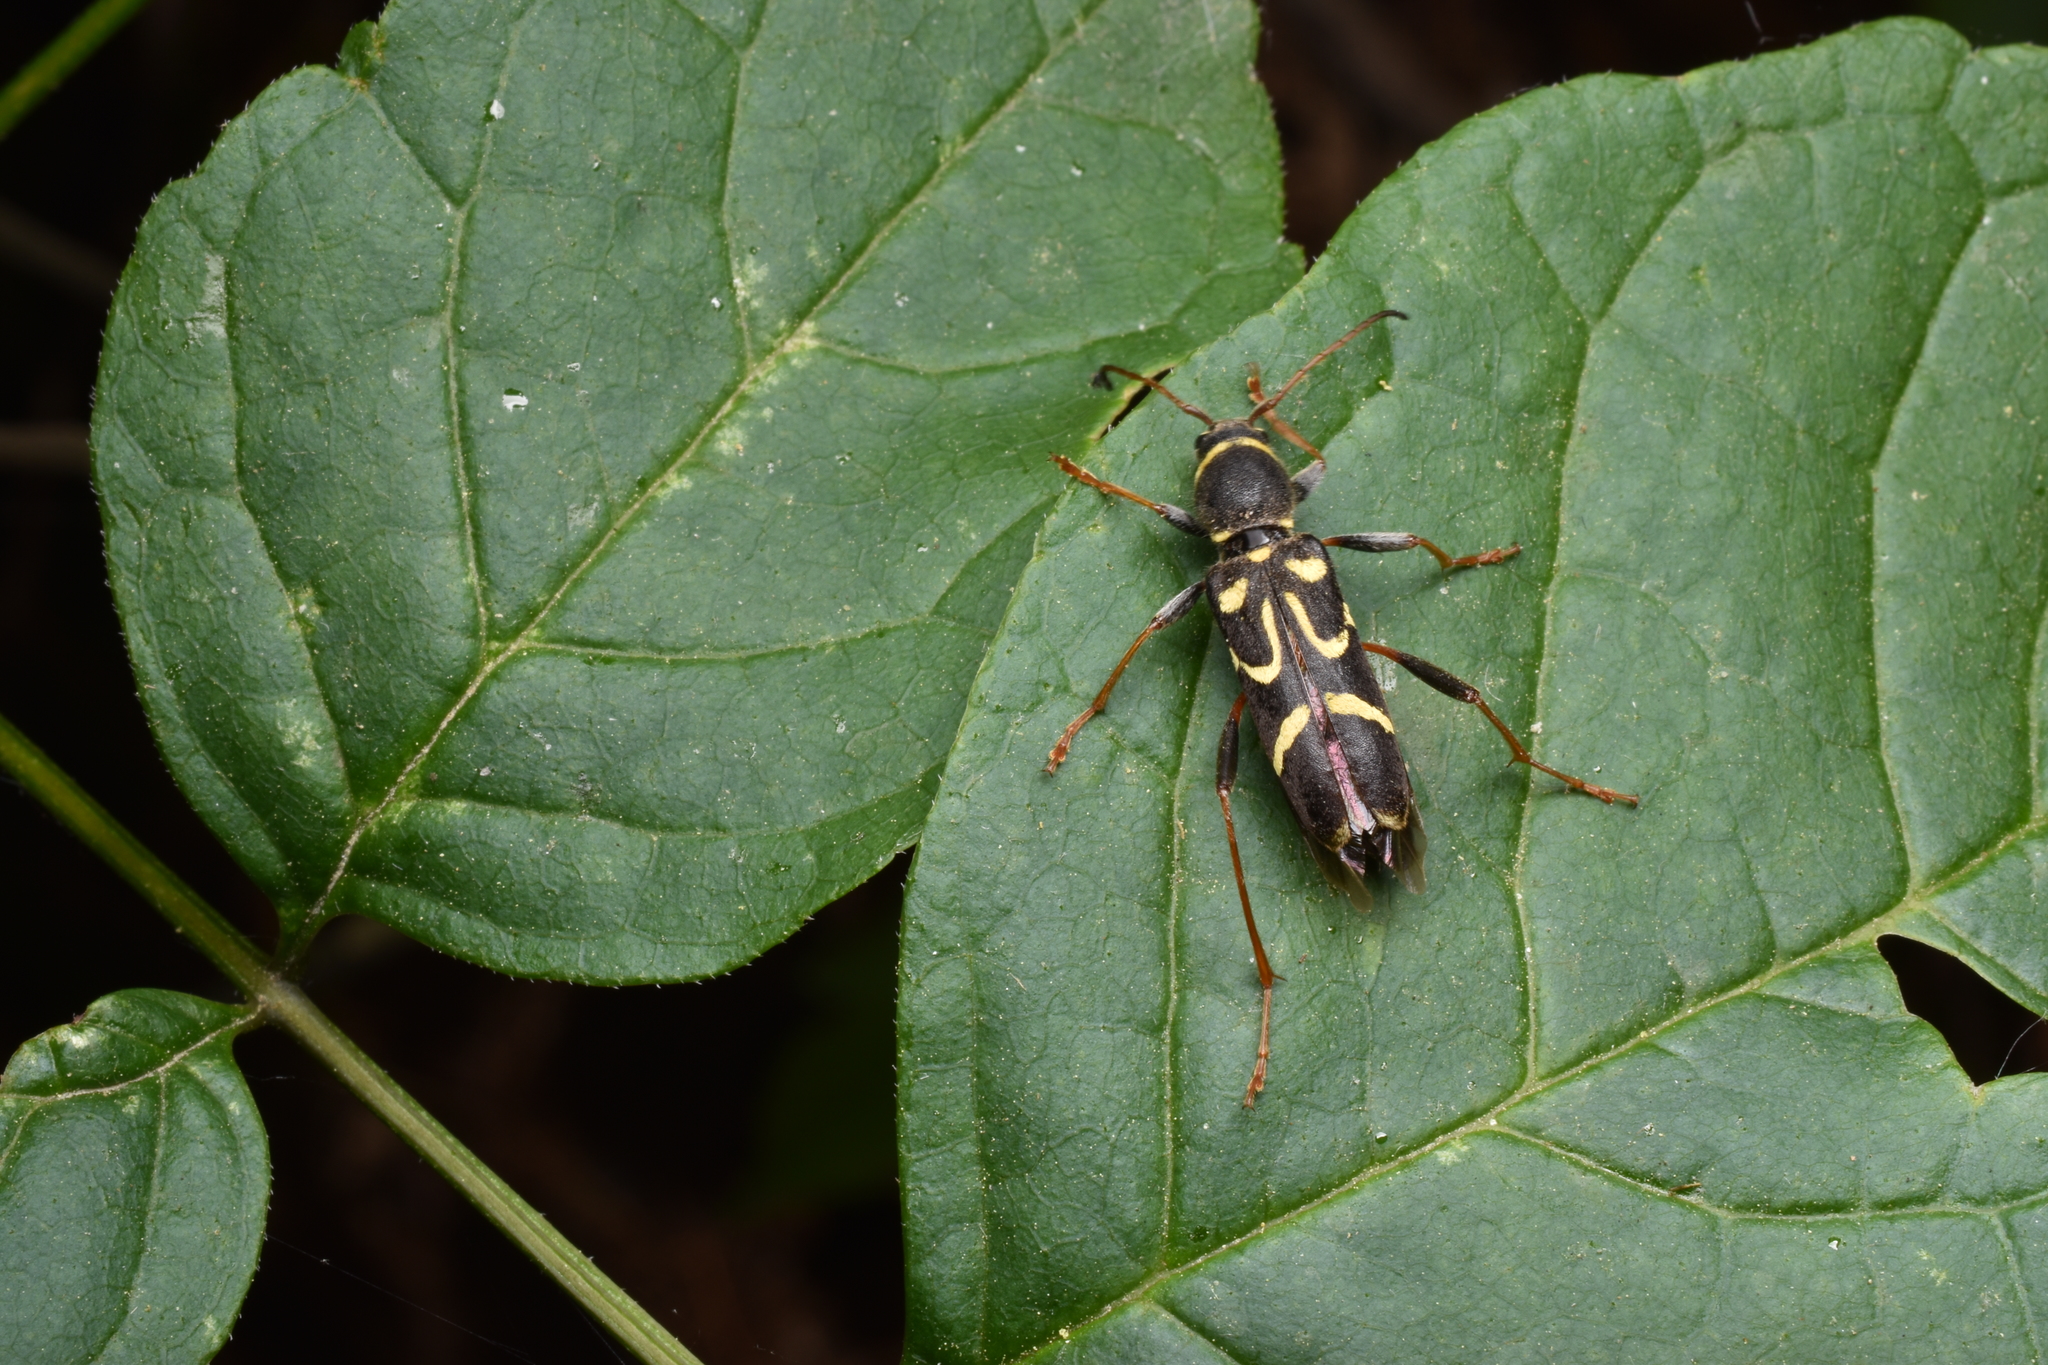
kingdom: Animalia
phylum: Arthropoda
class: Insecta
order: Coleoptera
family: Cerambycidae
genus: Clytus
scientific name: Clytus ruricola
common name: Round-necked longhorn beetle
